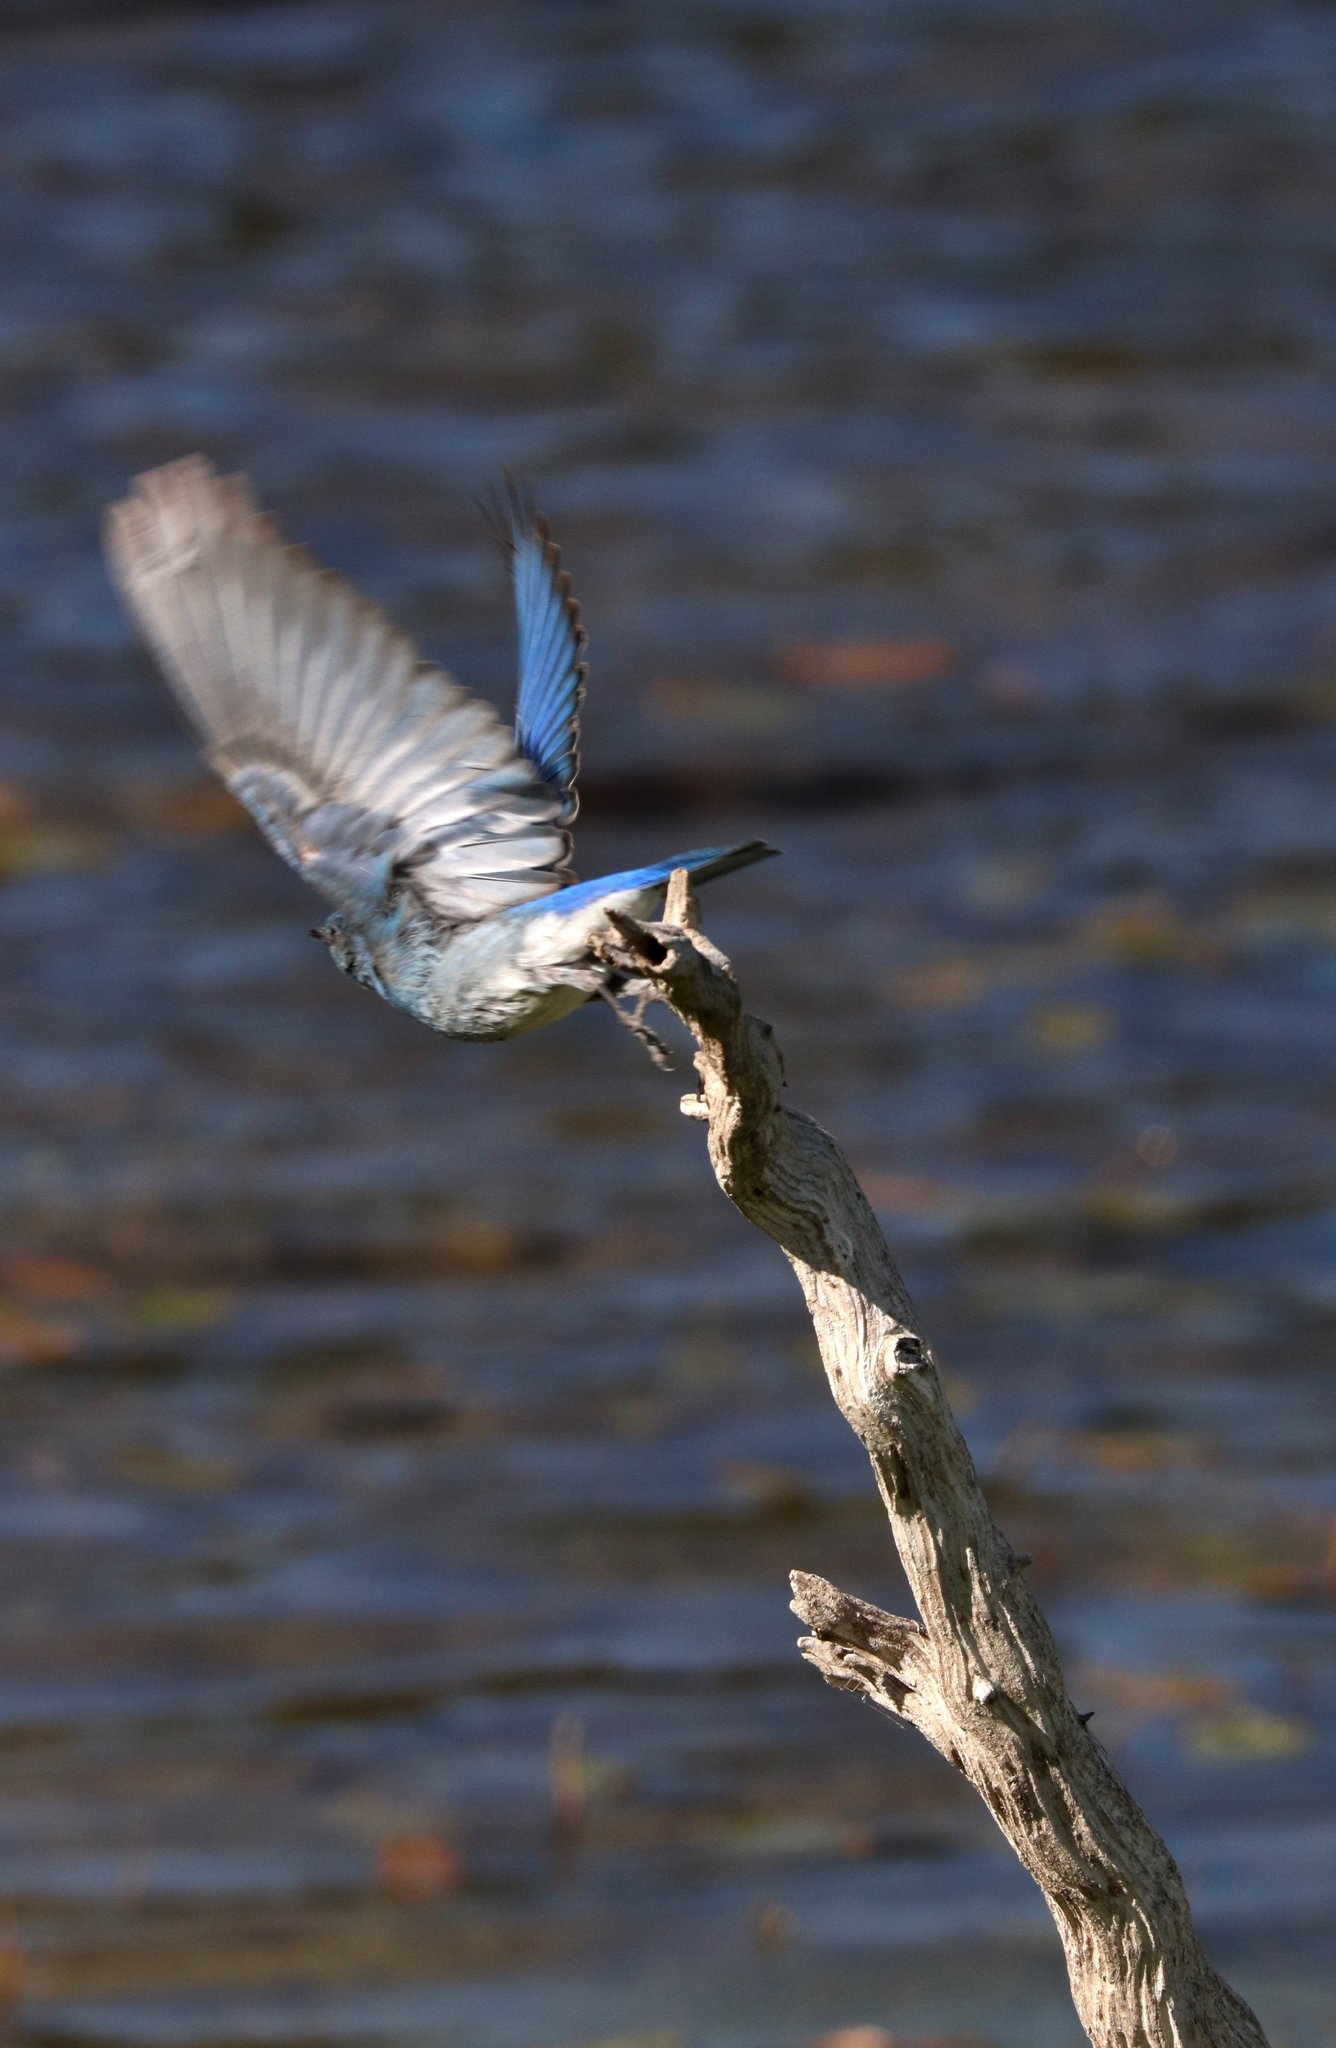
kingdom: Animalia
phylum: Chordata
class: Aves
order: Passeriformes
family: Turdidae
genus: Sialia
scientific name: Sialia currucoides
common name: Mountain bluebird
